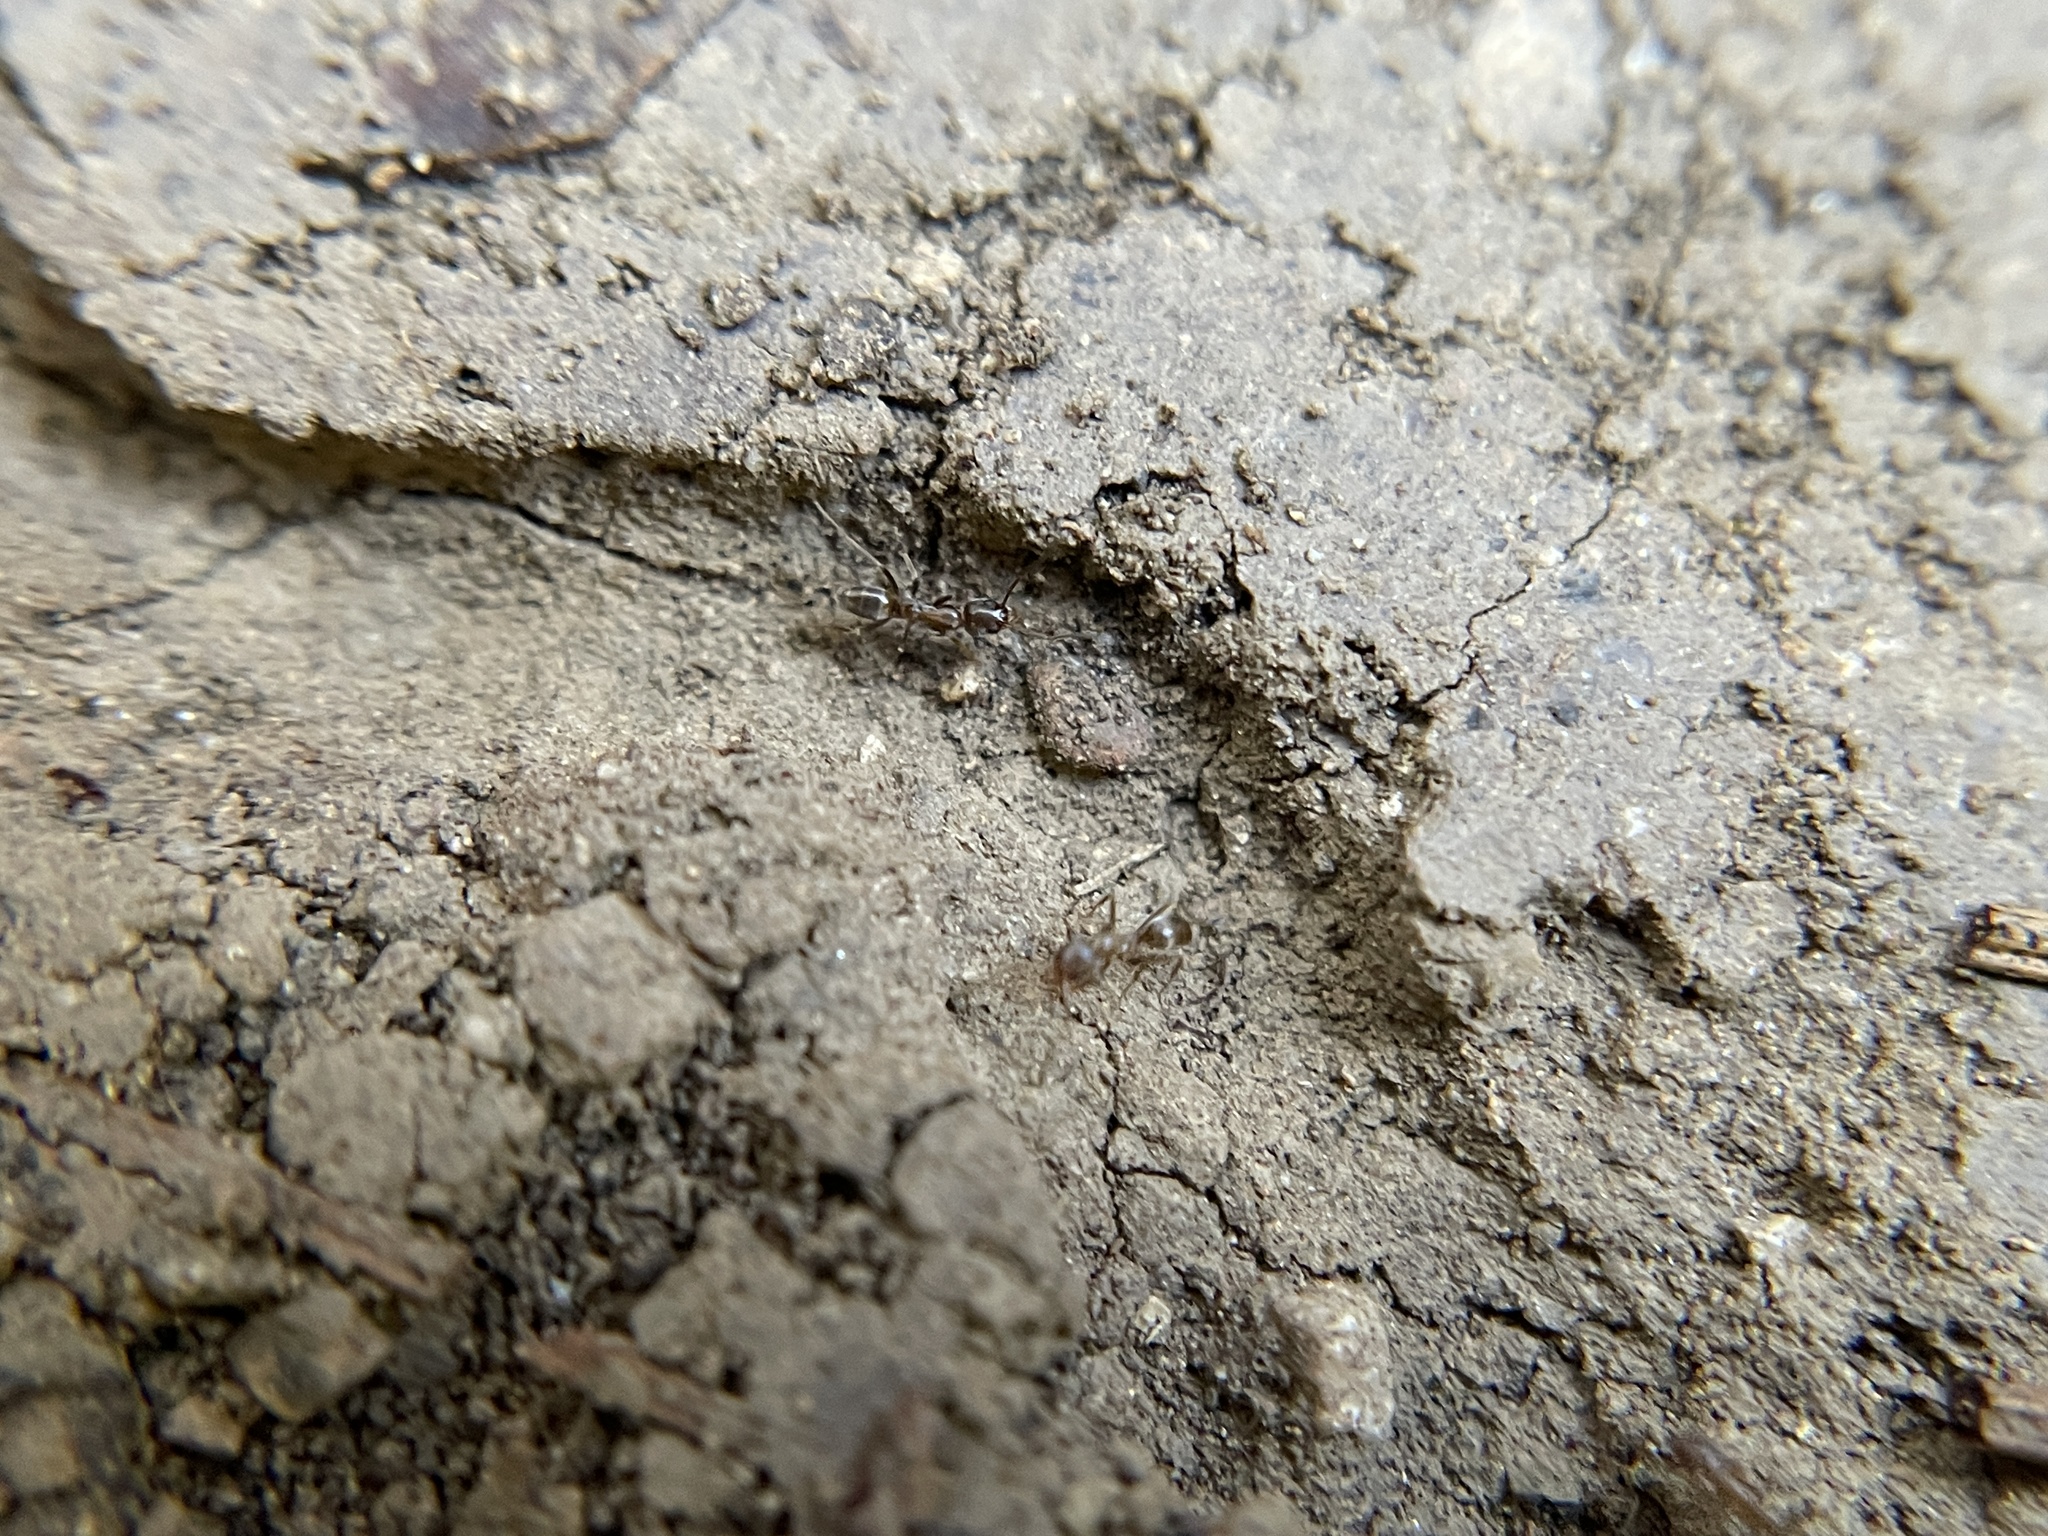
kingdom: Animalia
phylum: Arthropoda
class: Insecta
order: Hymenoptera
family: Formicidae
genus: Linepithema
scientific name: Linepithema humile
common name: Argentine ant
